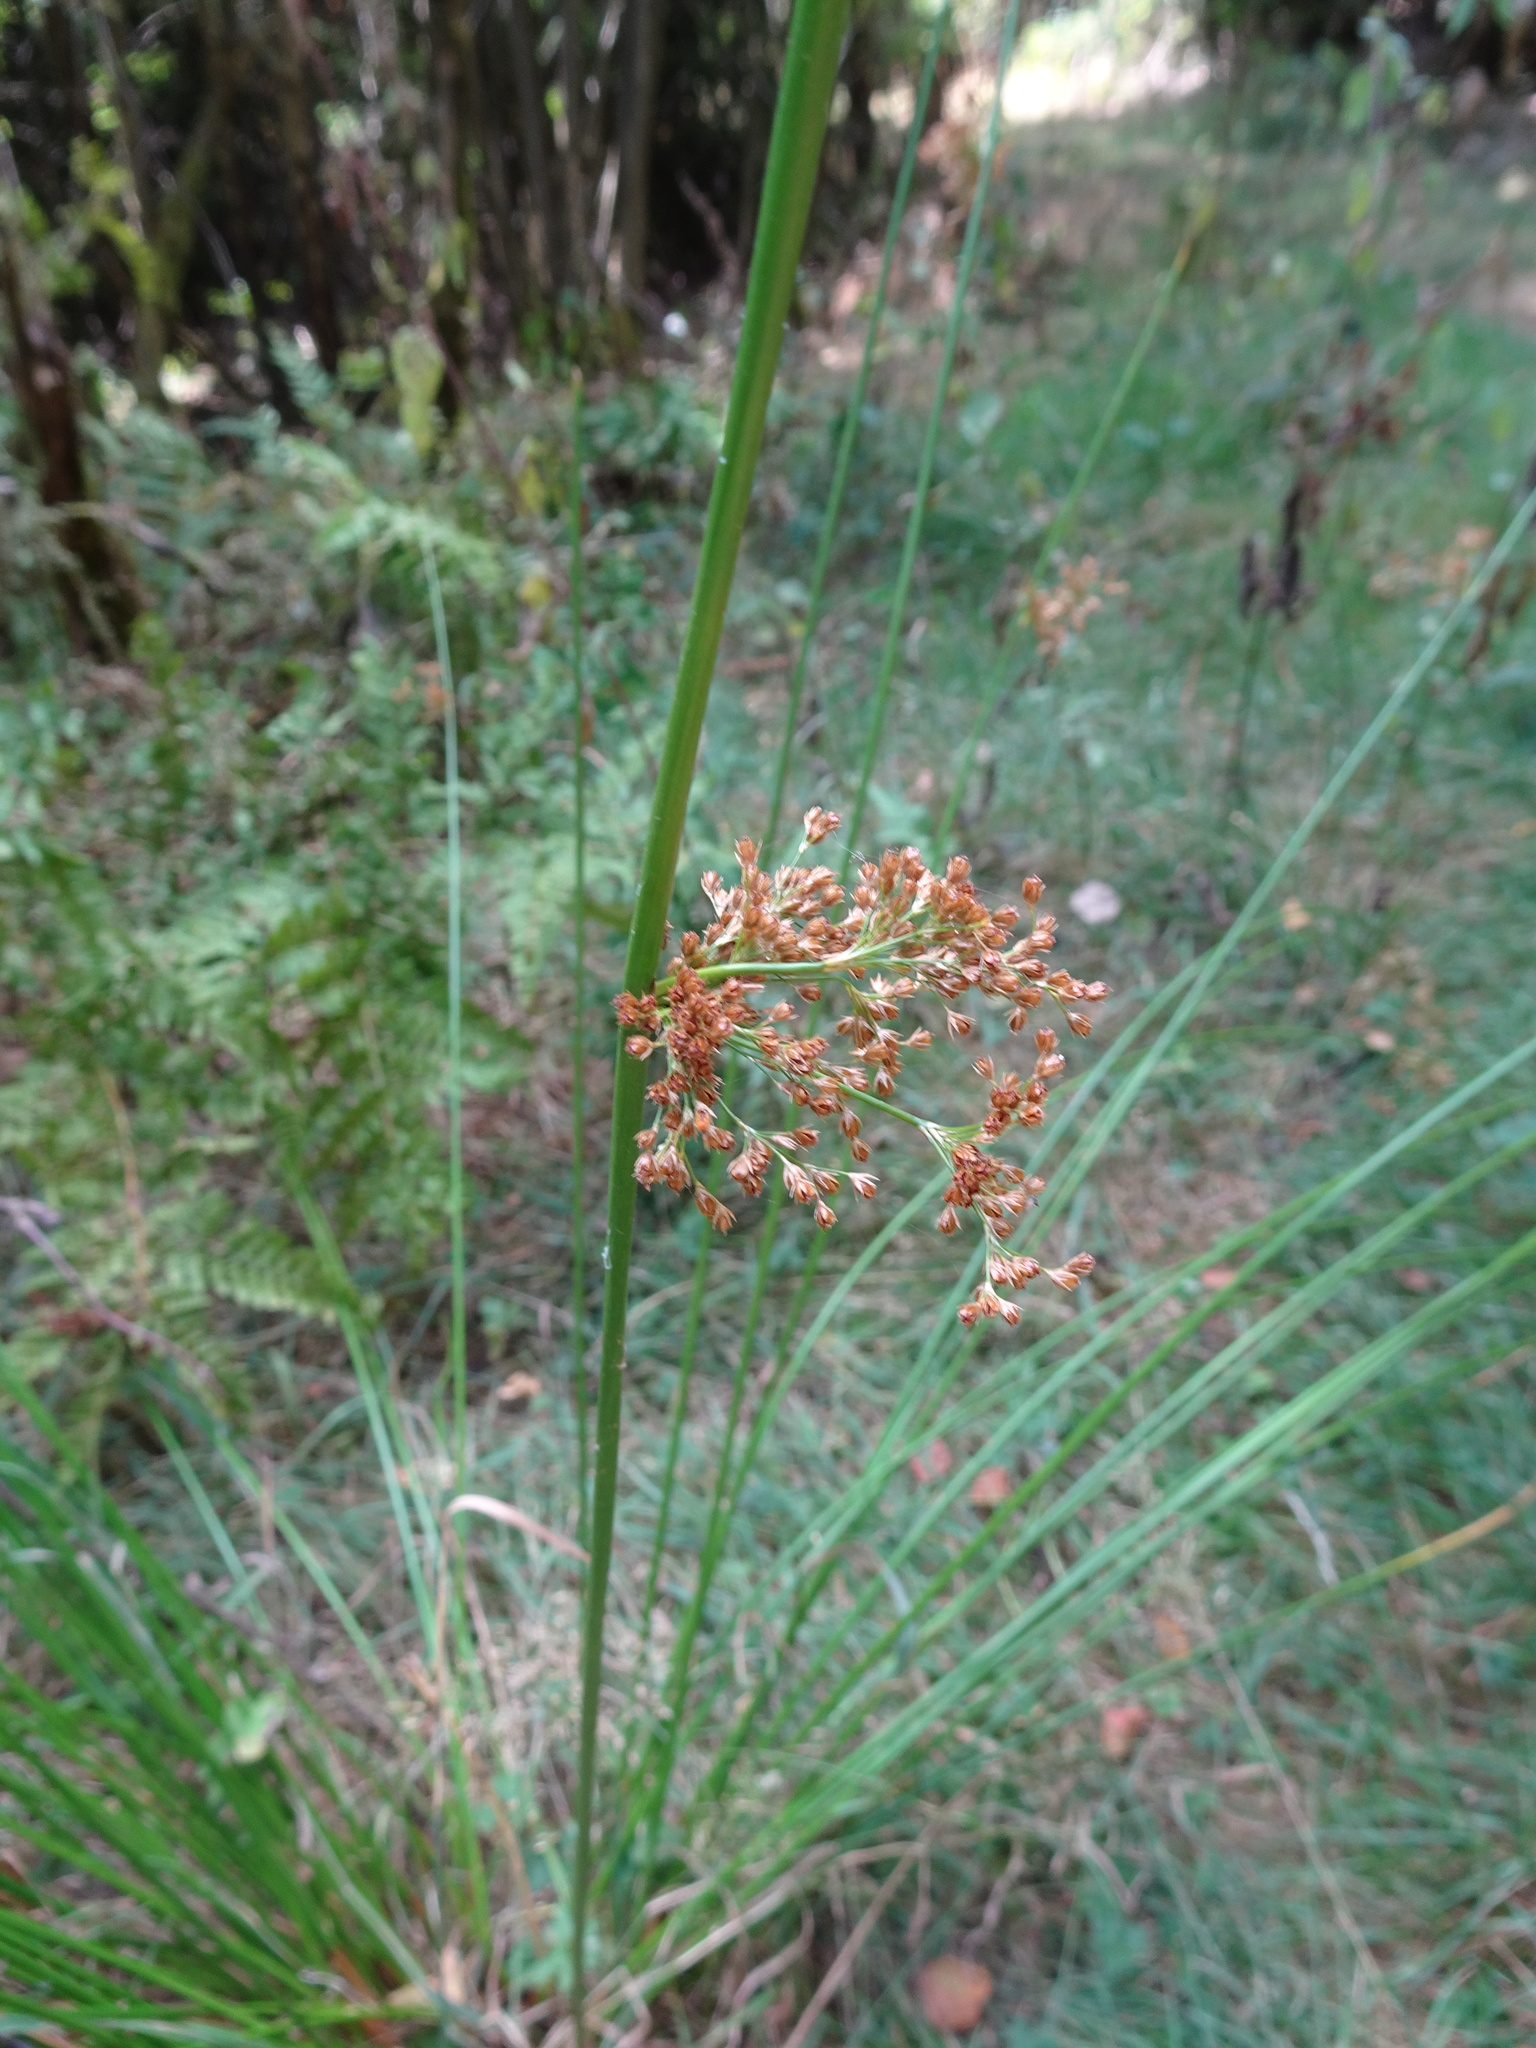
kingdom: Plantae
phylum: Tracheophyta
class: Liliopsida
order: Poales
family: Juncaceae
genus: Juncus
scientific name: Juncus effusus
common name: Soft rush
